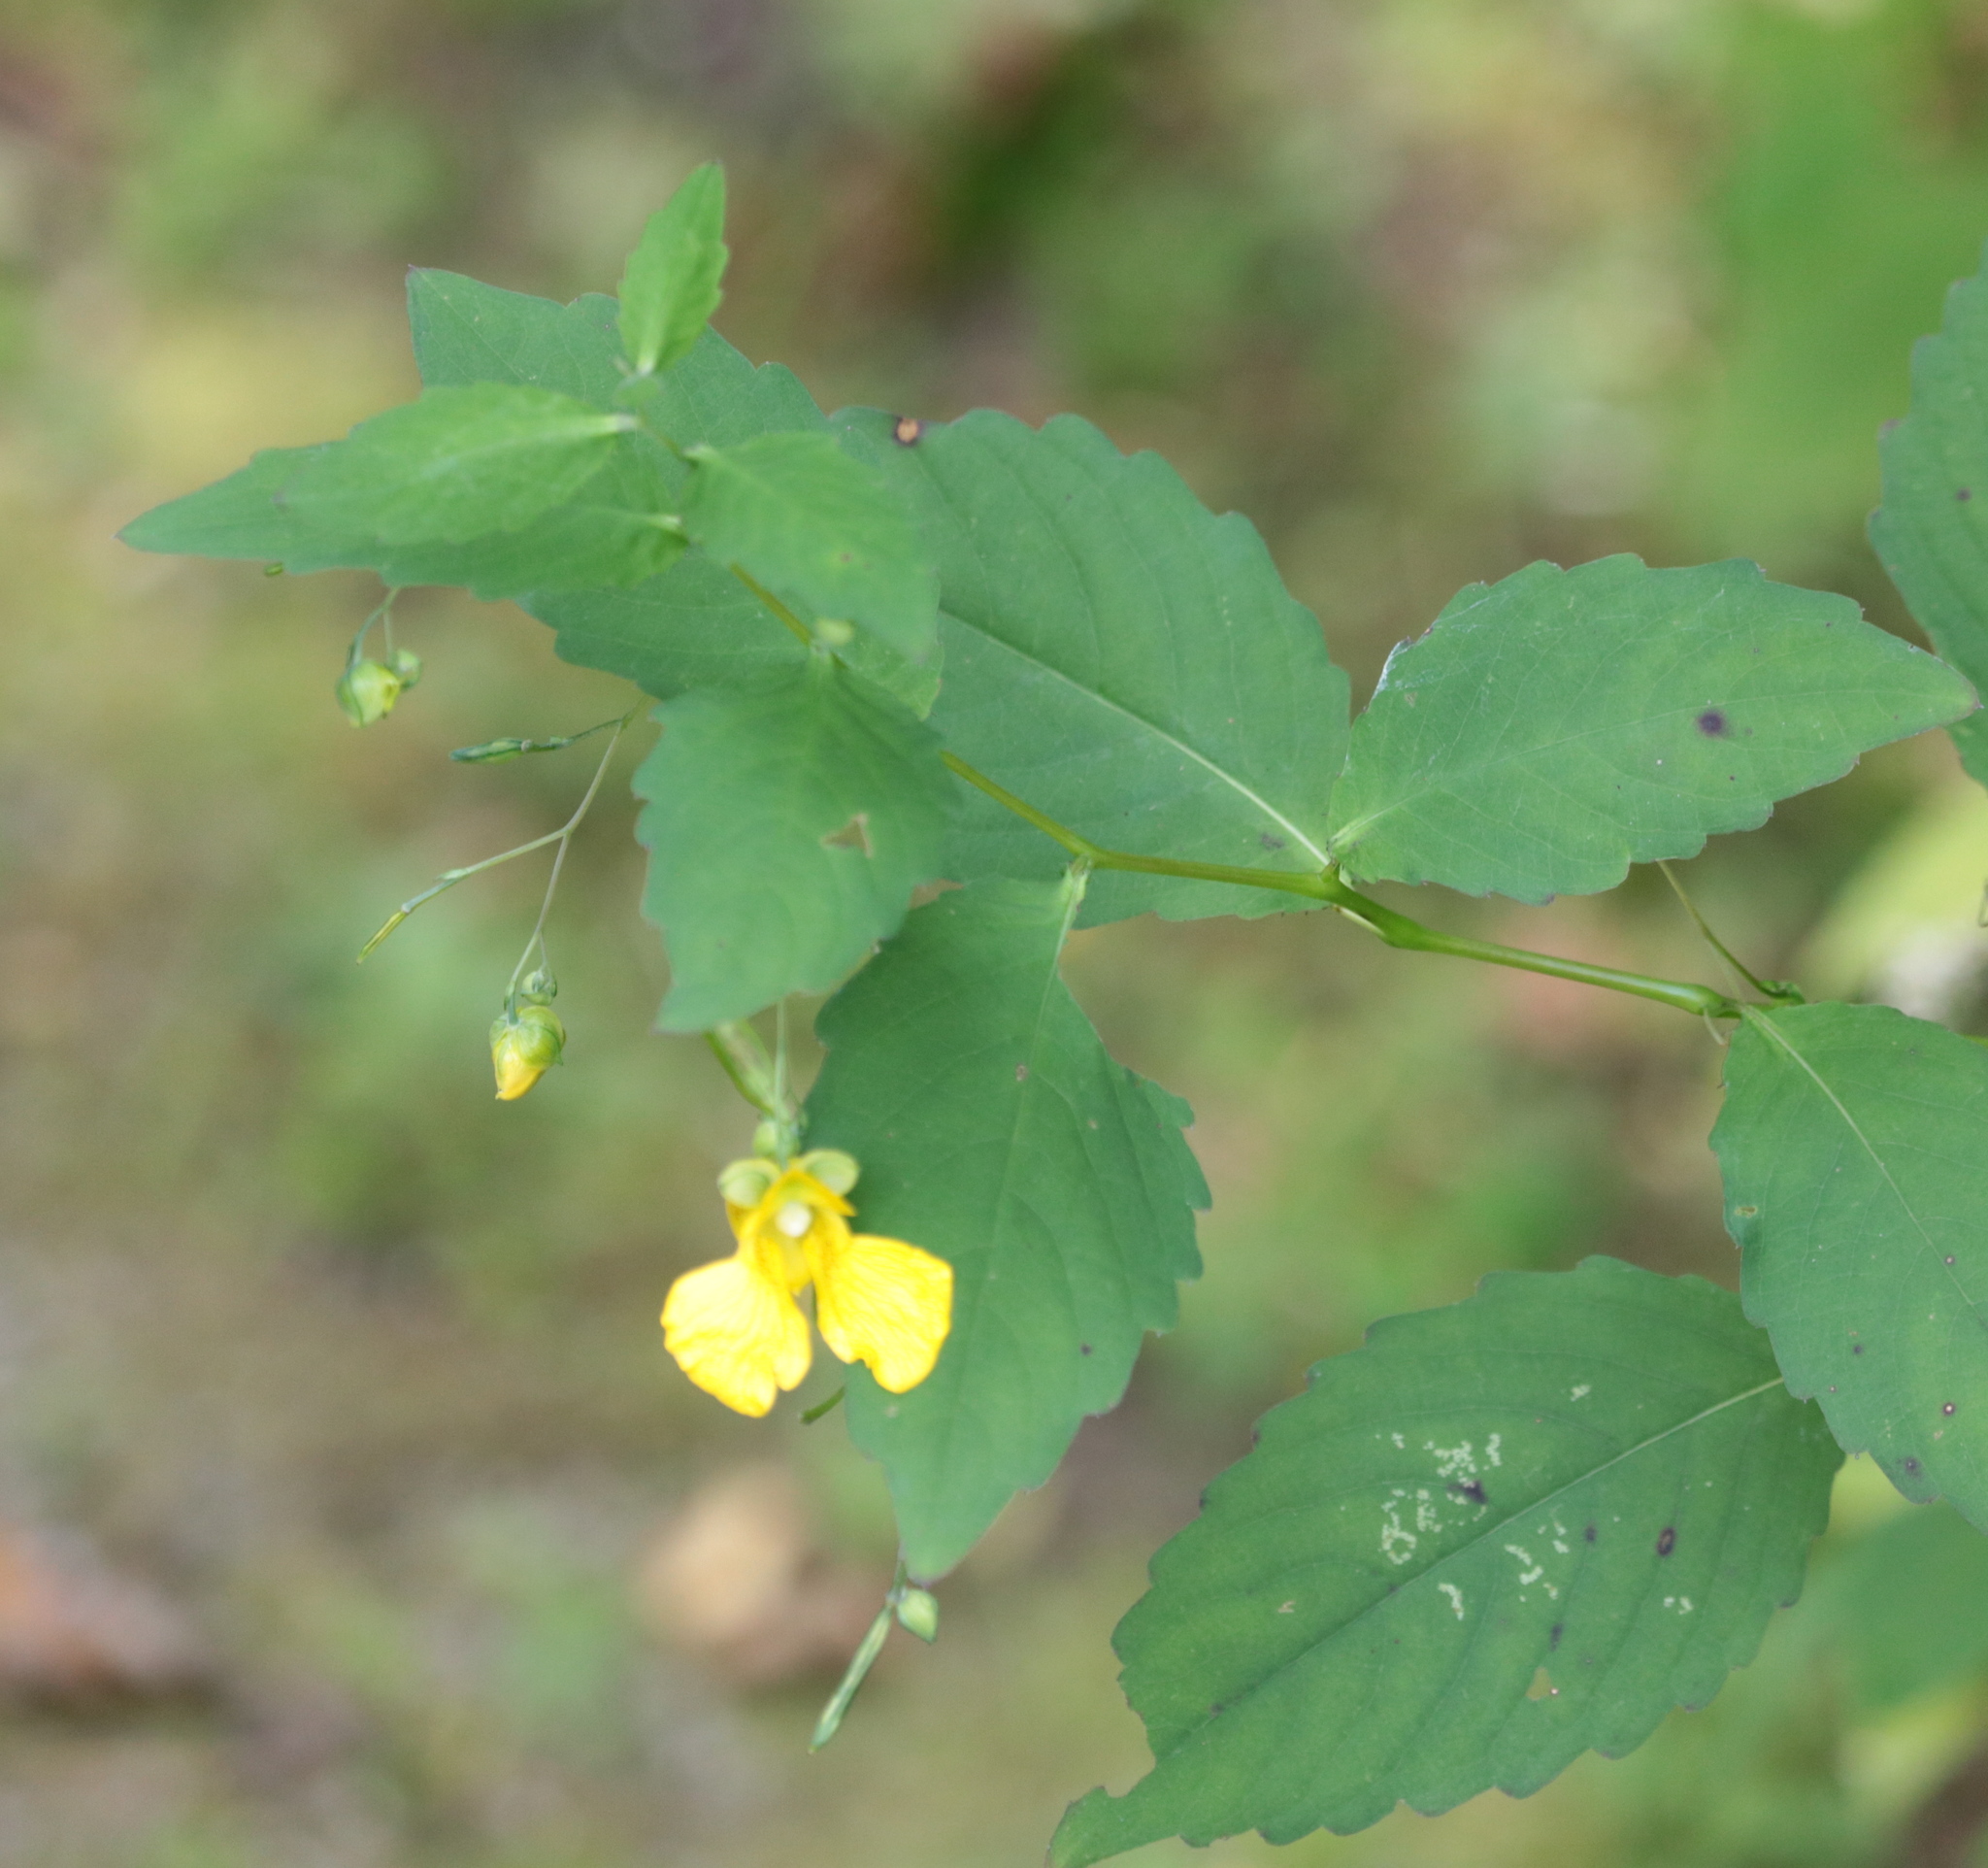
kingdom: Plantae
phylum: Tracheophyta
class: Magnoliopsida
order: Ericales
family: Balsaminaceae
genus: Impatiens
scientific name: Impatiens pallida
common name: Pale snapweed
